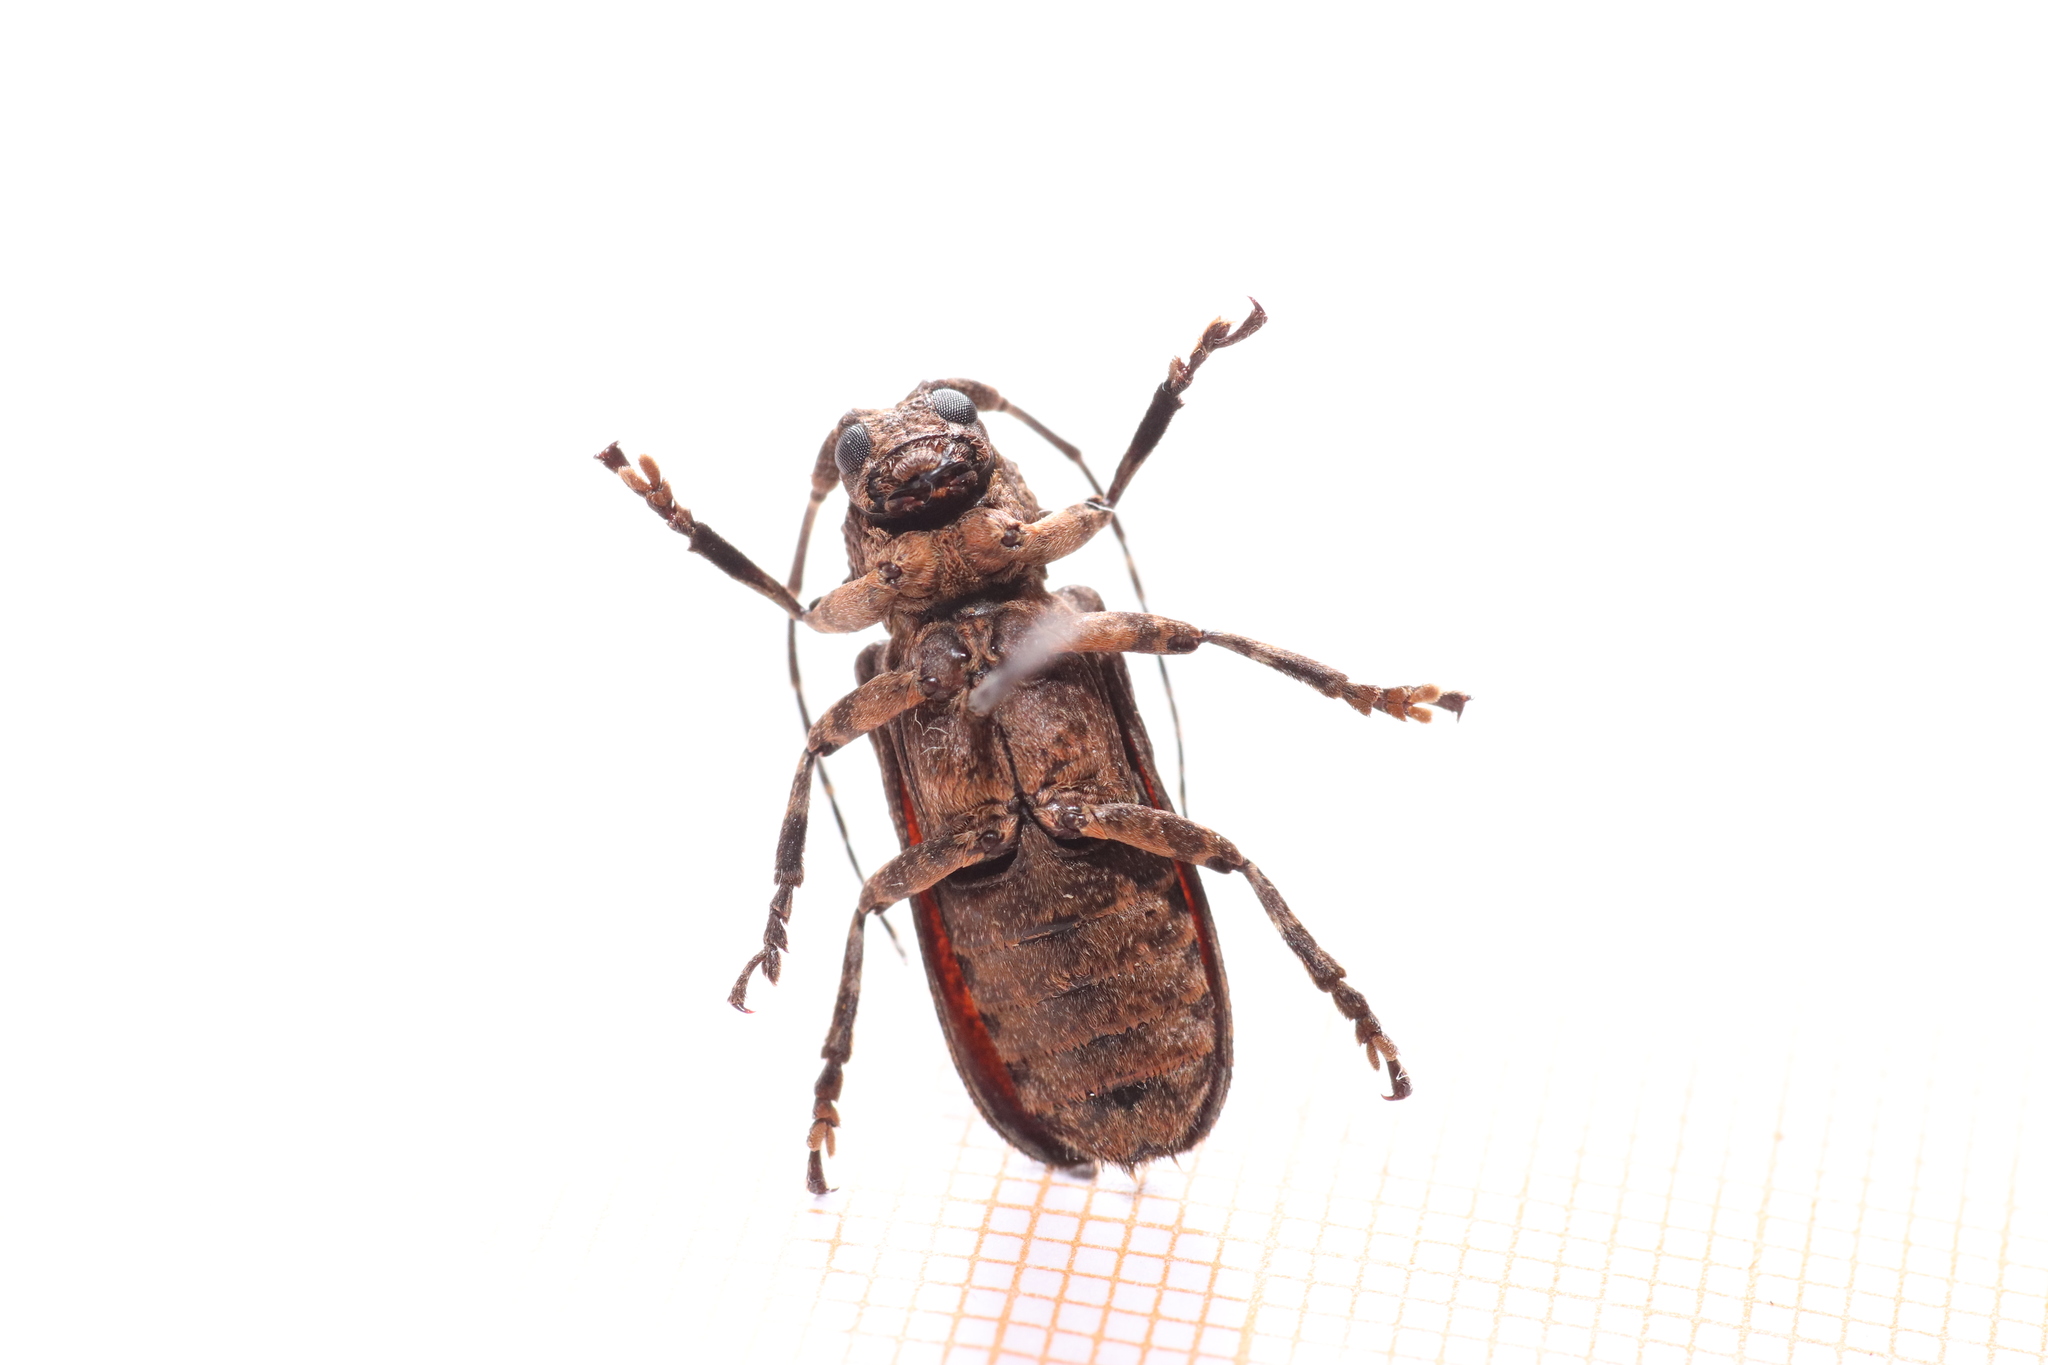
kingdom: Animalia
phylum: Arthropoda
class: Insecta
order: Coleoptera
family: Cerambycidae
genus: Hecyra
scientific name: Hecyra obscurator
